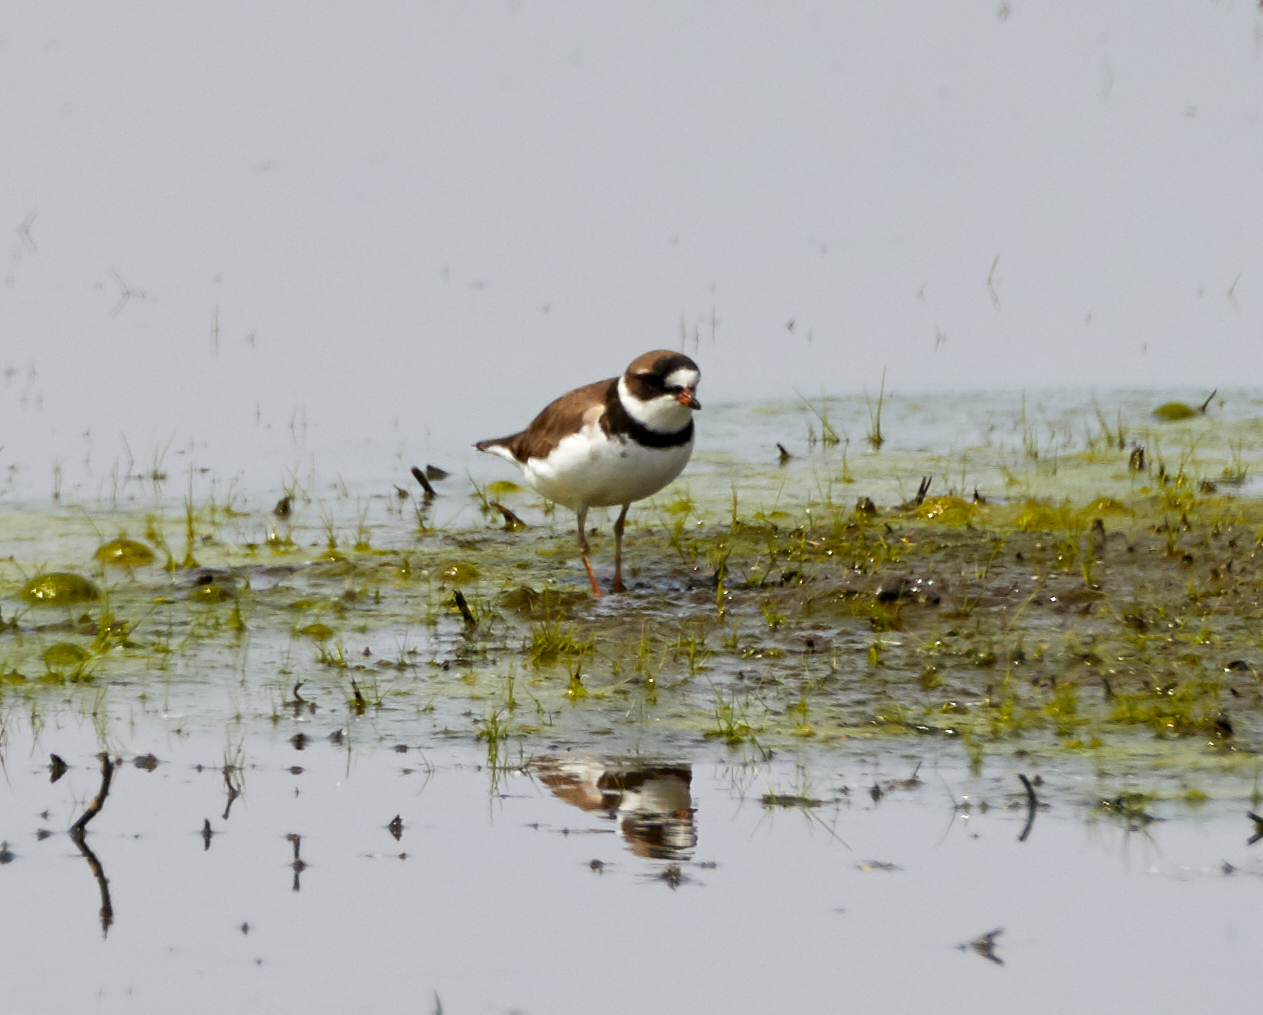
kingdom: Animalia
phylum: Chordata
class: Aves
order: Charadriiformes
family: Charadriidae
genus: Charadrius
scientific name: Charadrius semipalmatus
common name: Semipalmated plover
